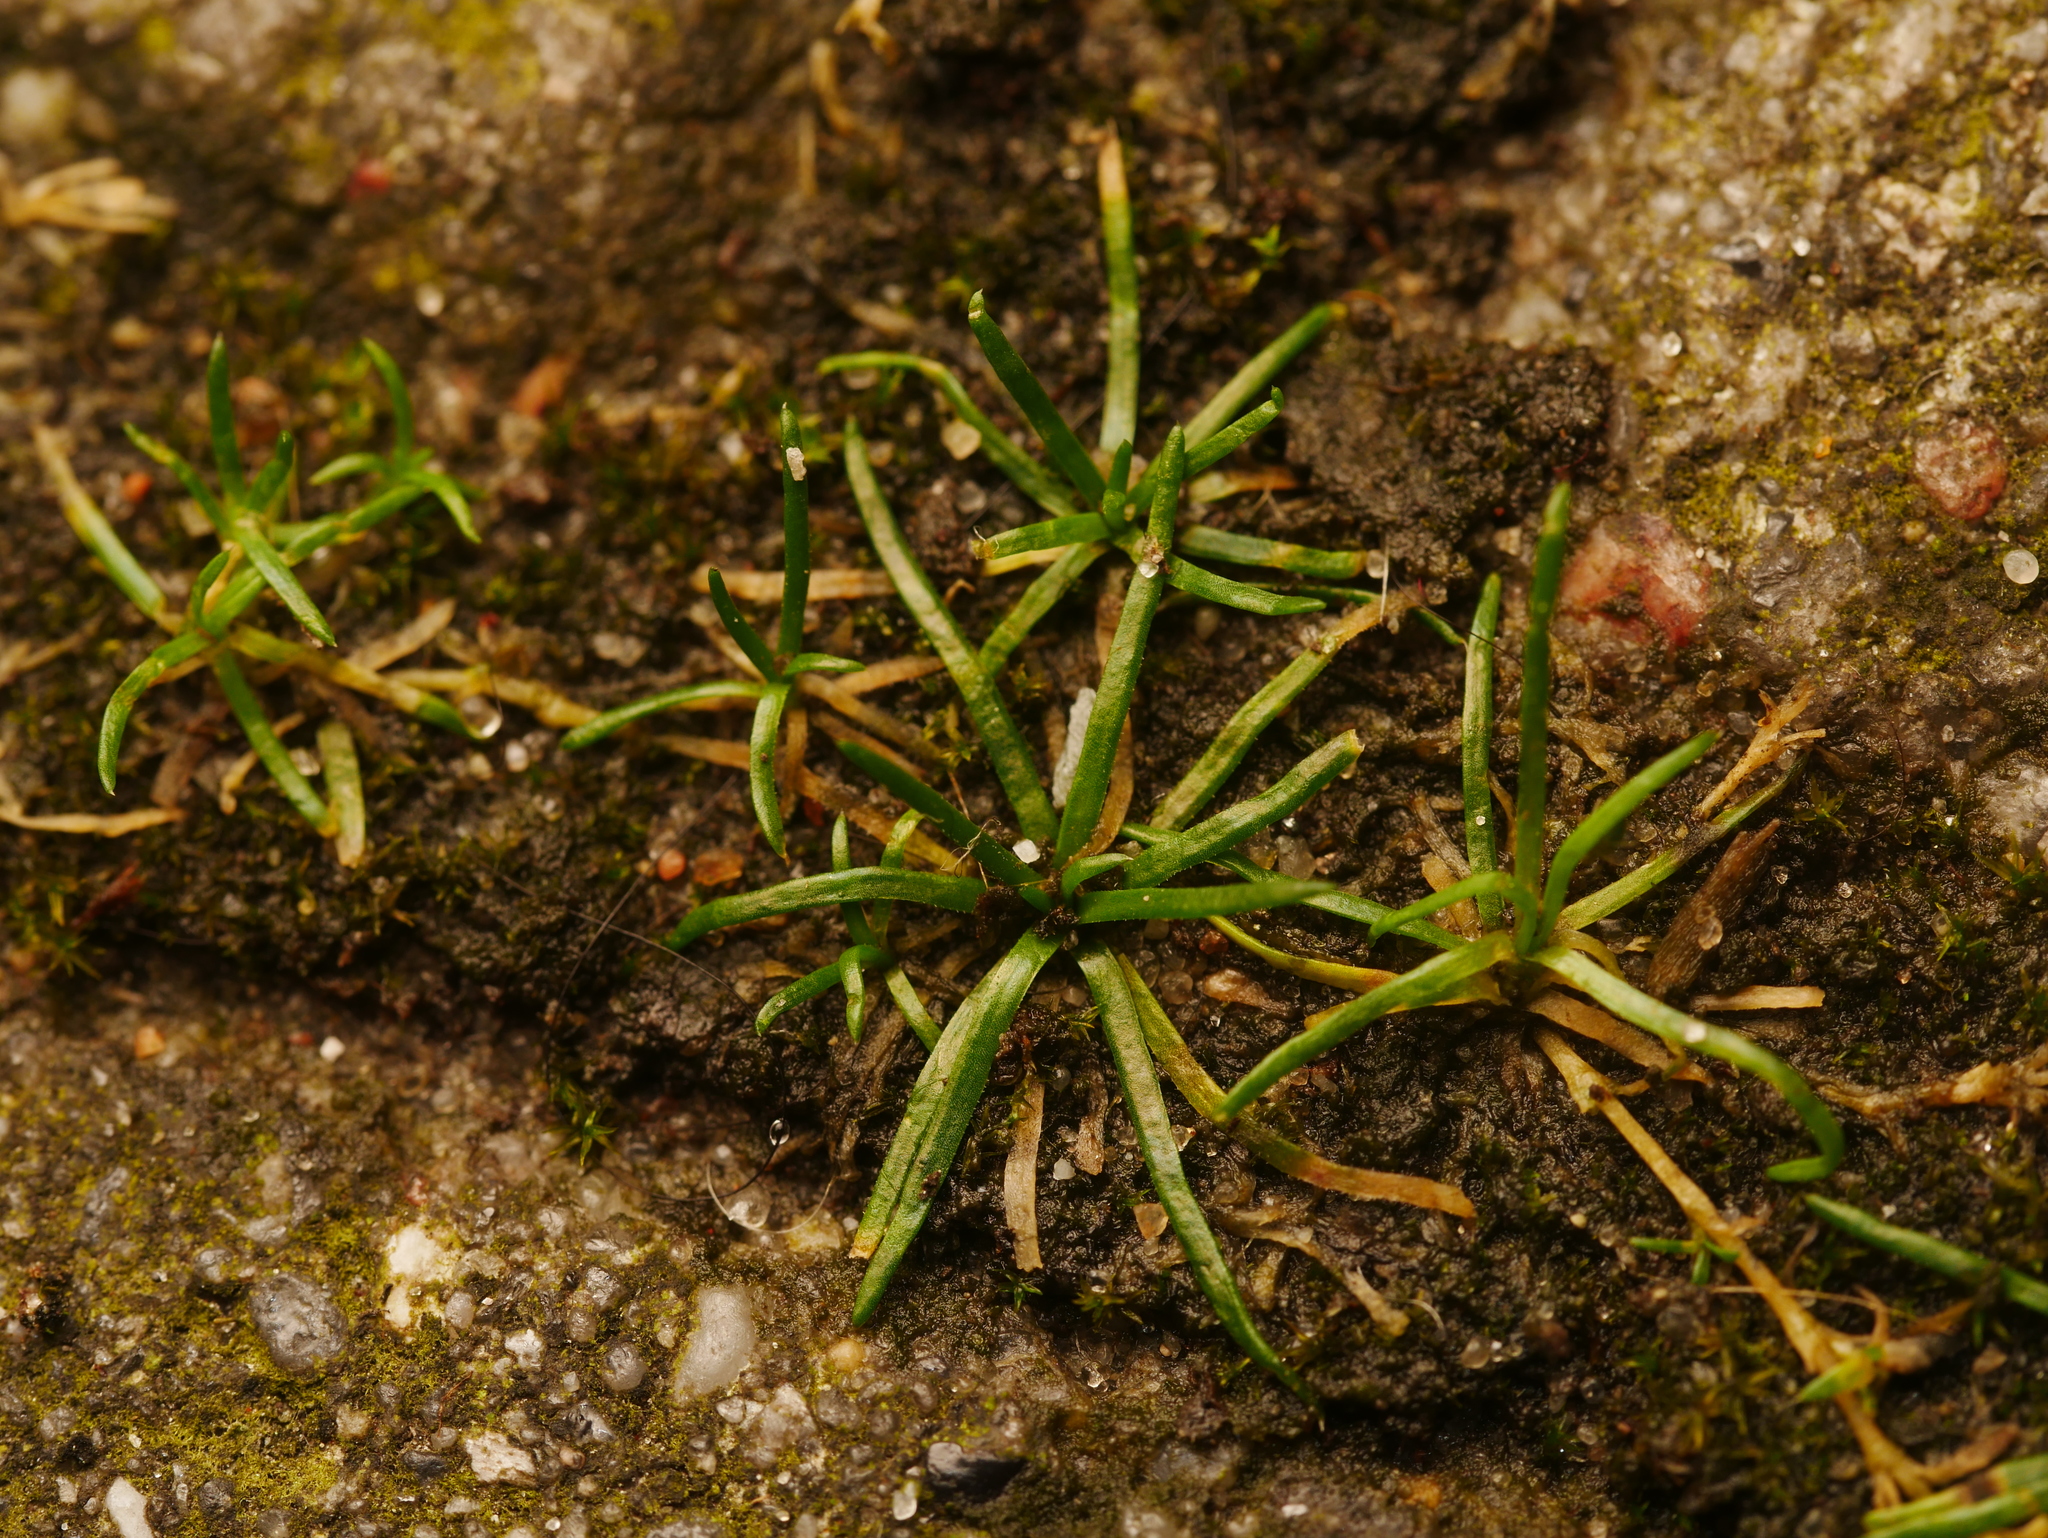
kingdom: Plantae
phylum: Tracheophyta
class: Magnoliopsida
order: Caryophyllales
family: Caryophyllaceae
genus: Sagina
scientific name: Sagina procumbens
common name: Procumbent pearlwort
